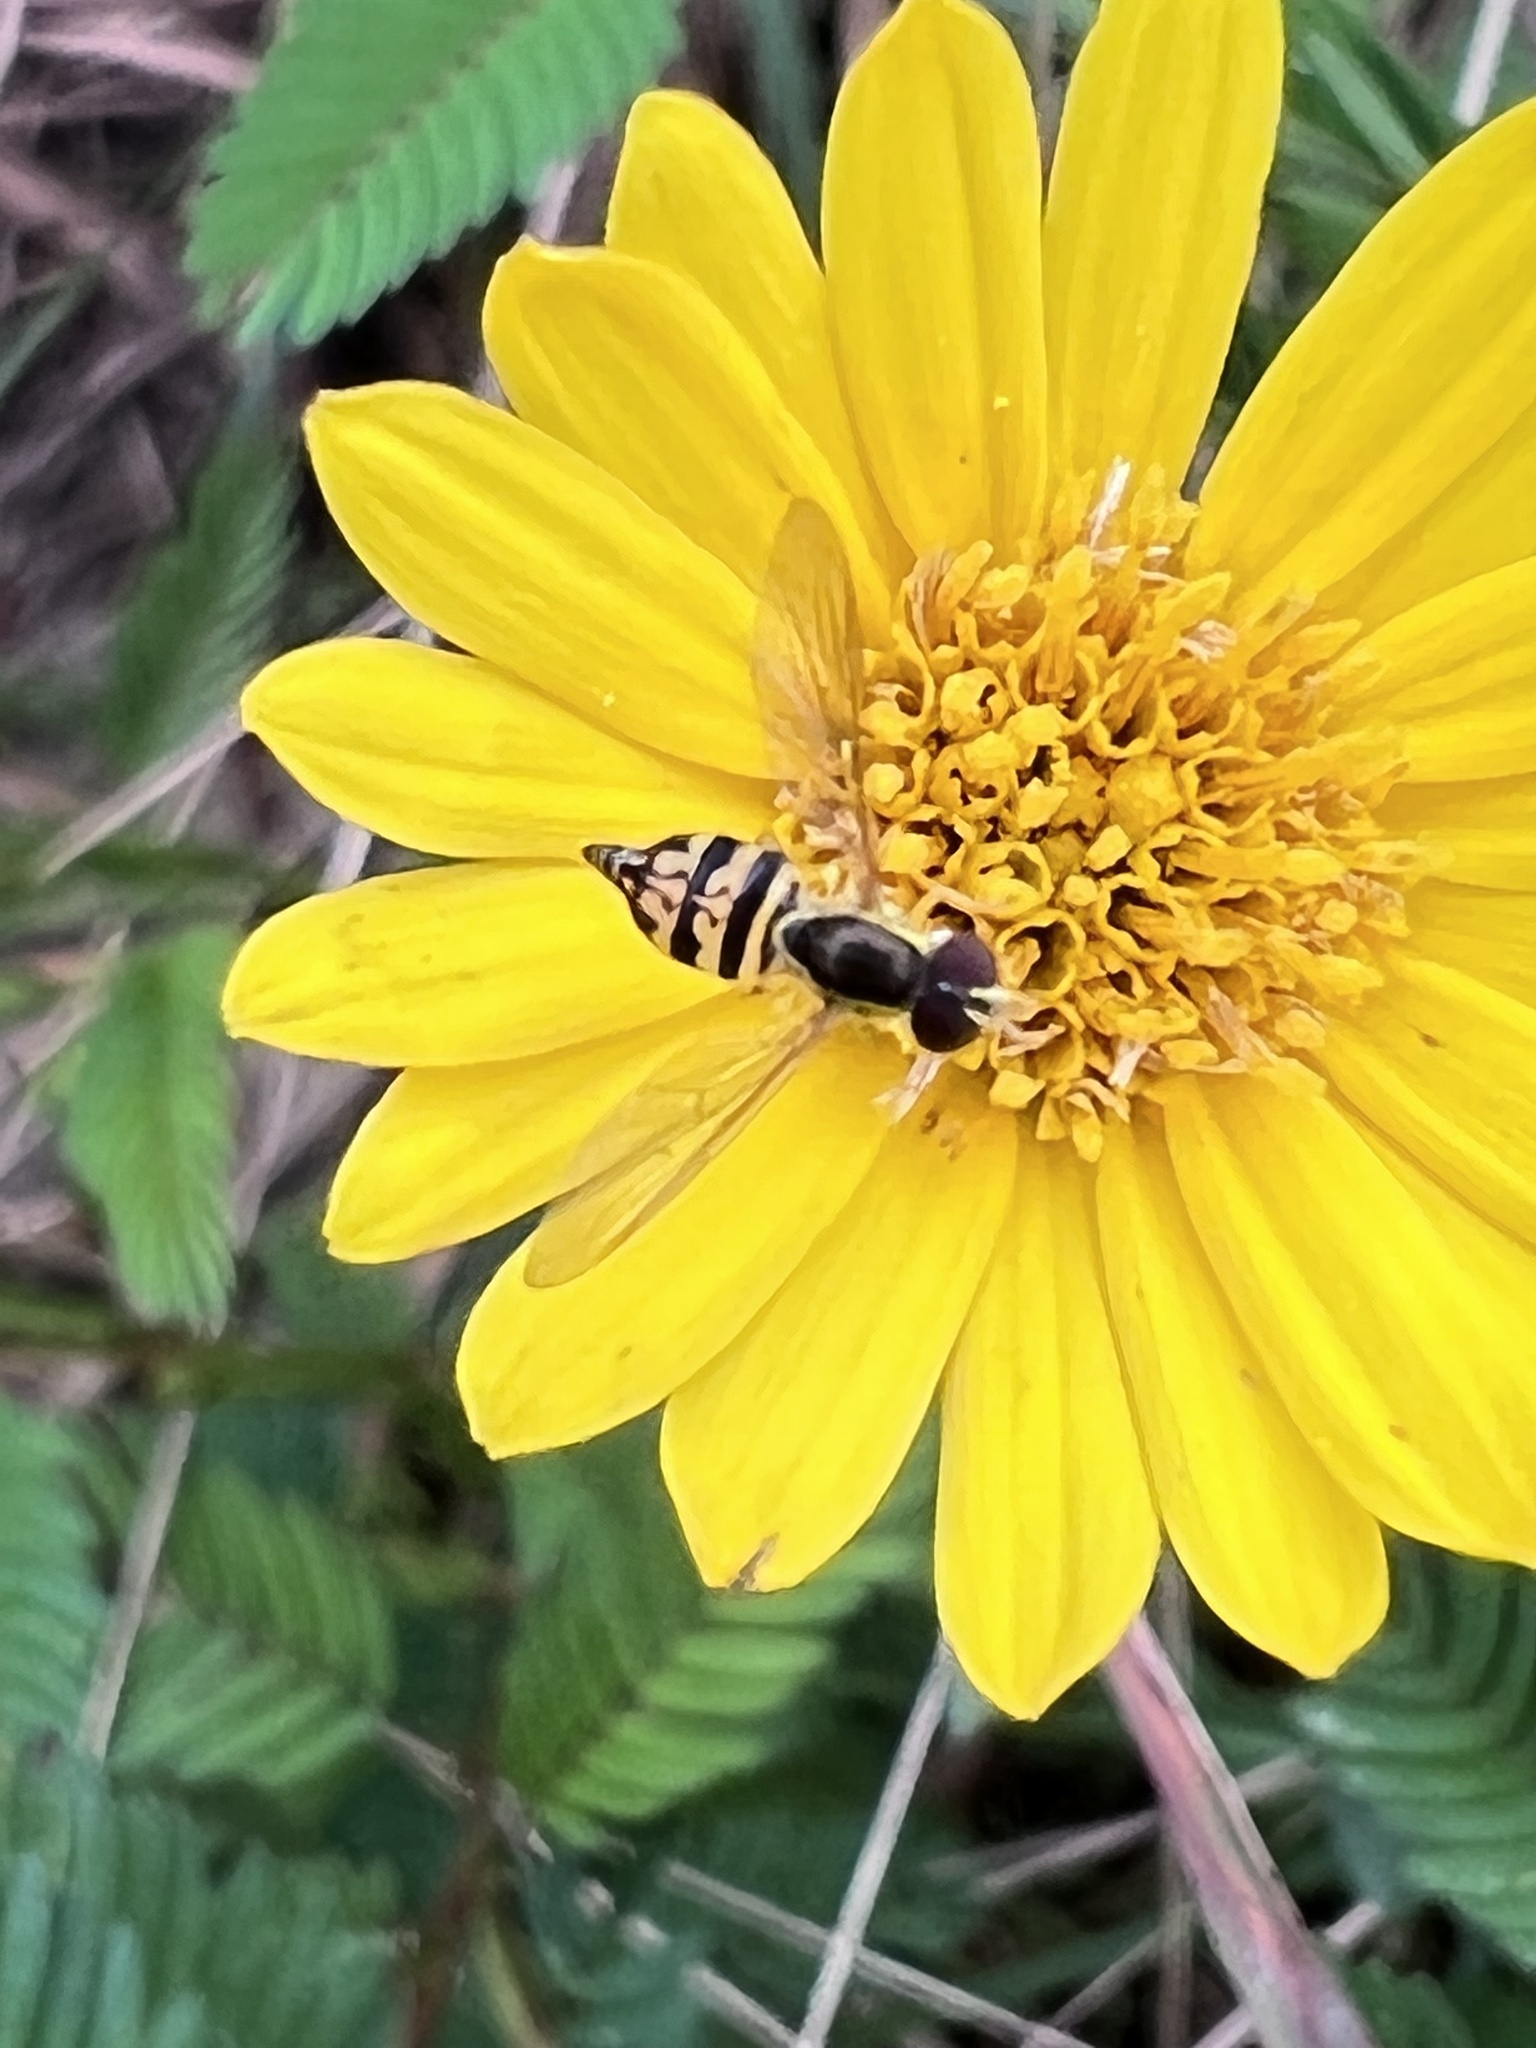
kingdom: Animalia
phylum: Arthropoda
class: Insecta
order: Diptera
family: Syrphidae
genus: Toxomerus
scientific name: Toxomerus geminatus
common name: Eastern calligrapher
